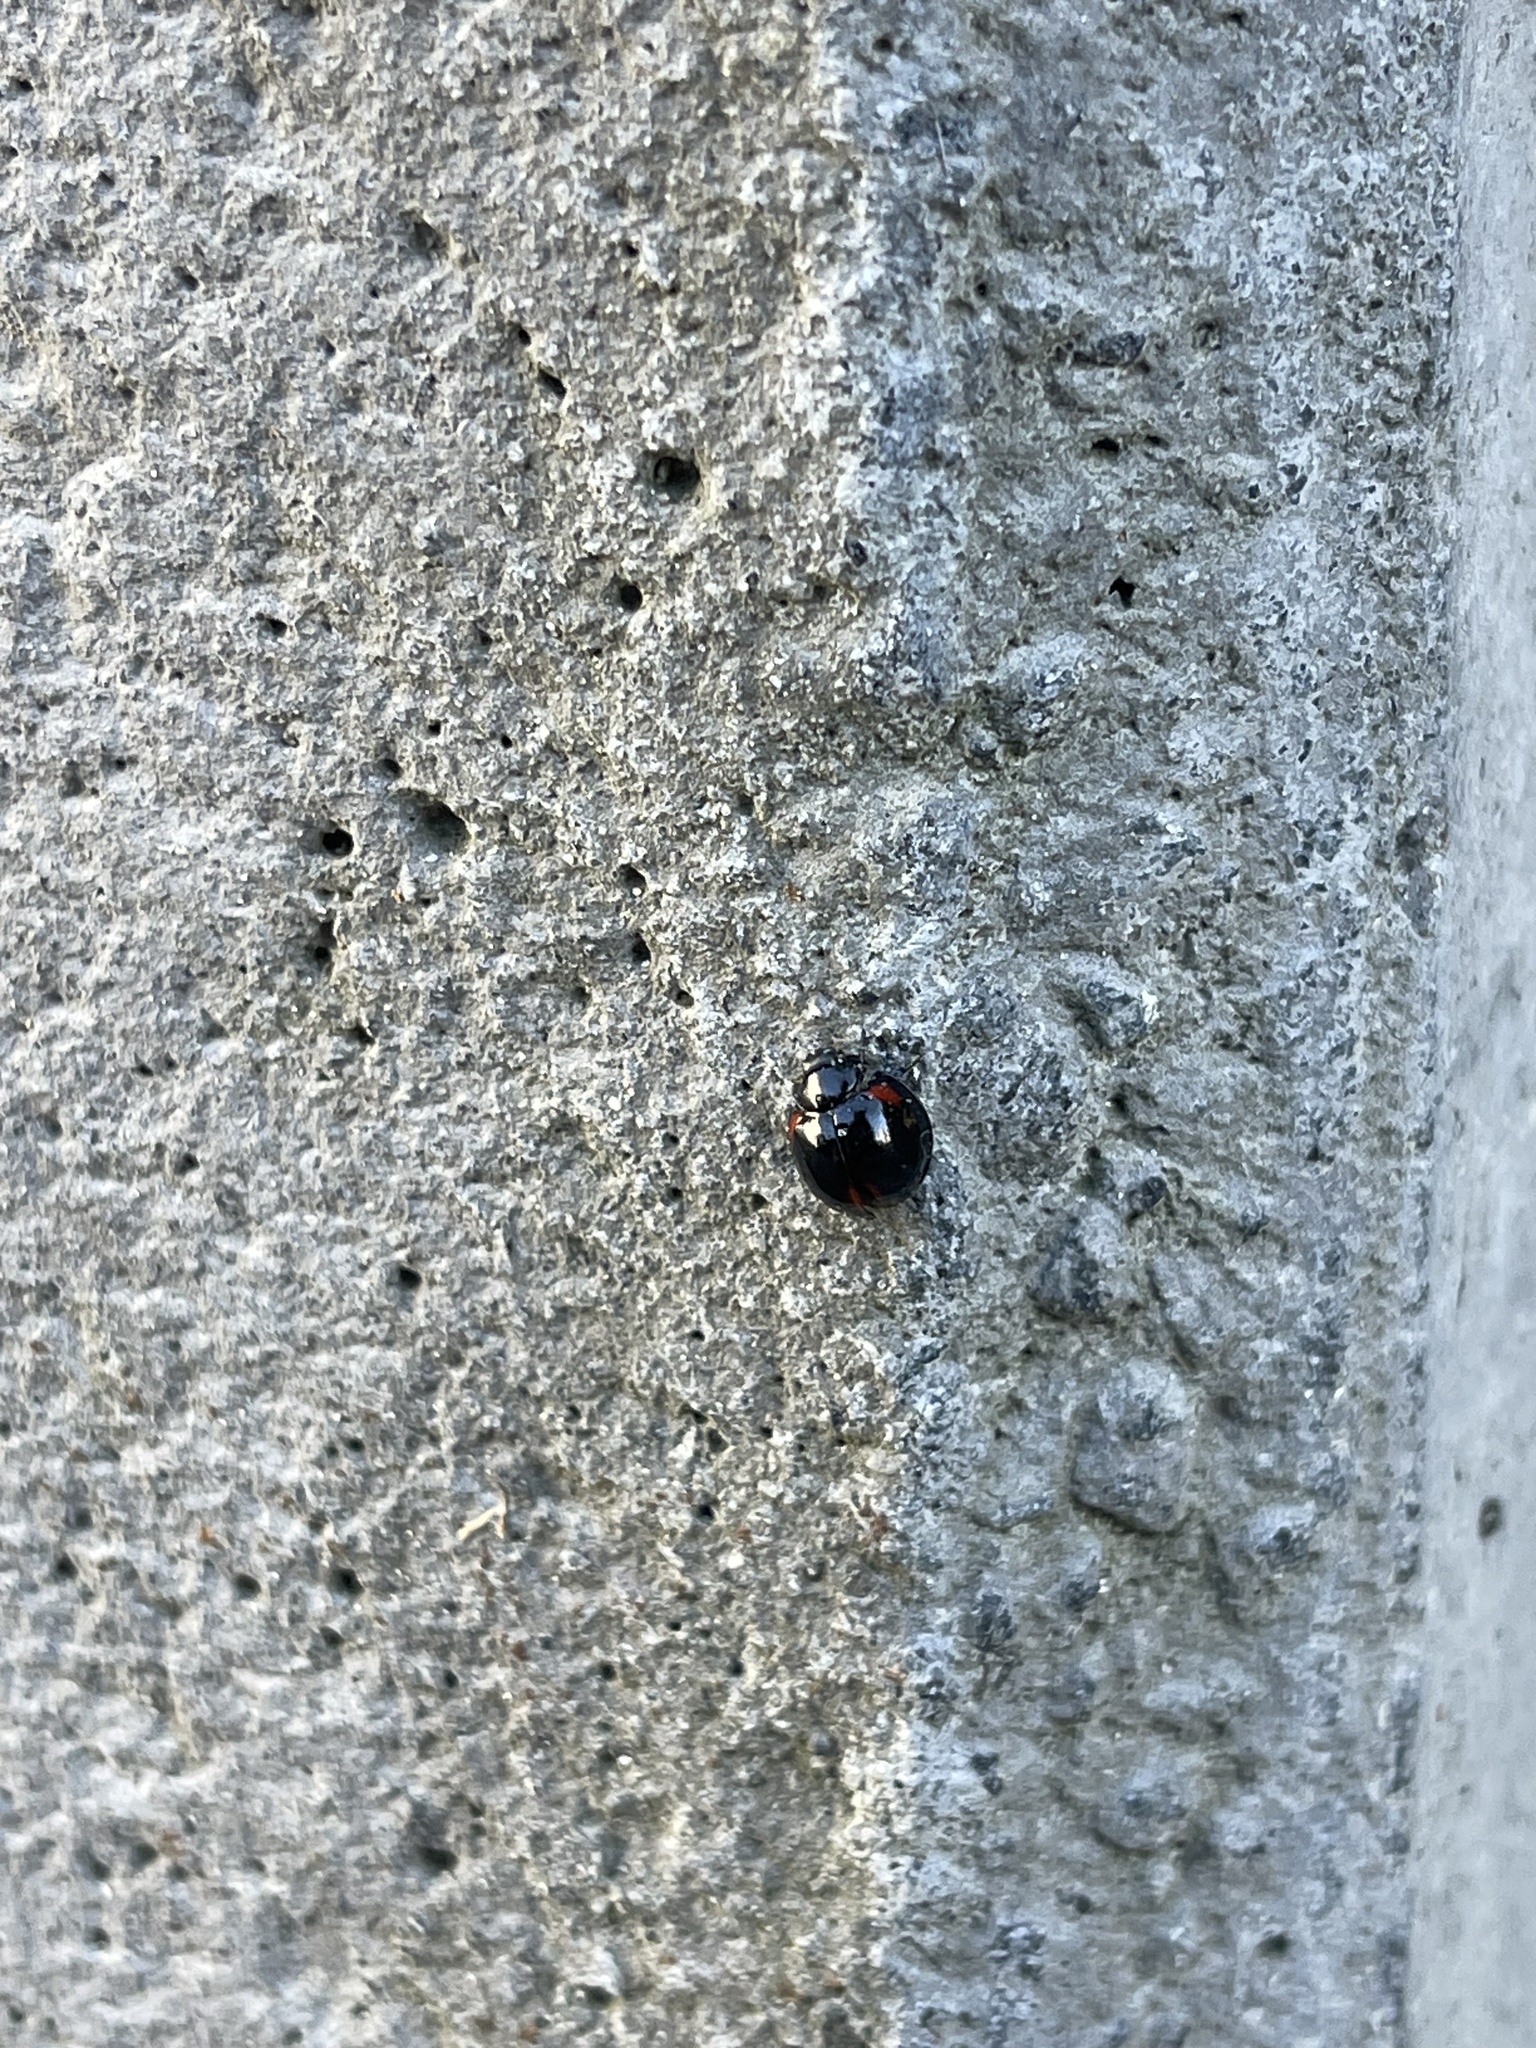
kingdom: Animalia
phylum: Arthropoda
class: Insecta
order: Coleoptera
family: Coccinellidae
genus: Axion
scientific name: Axion tripustulatum
